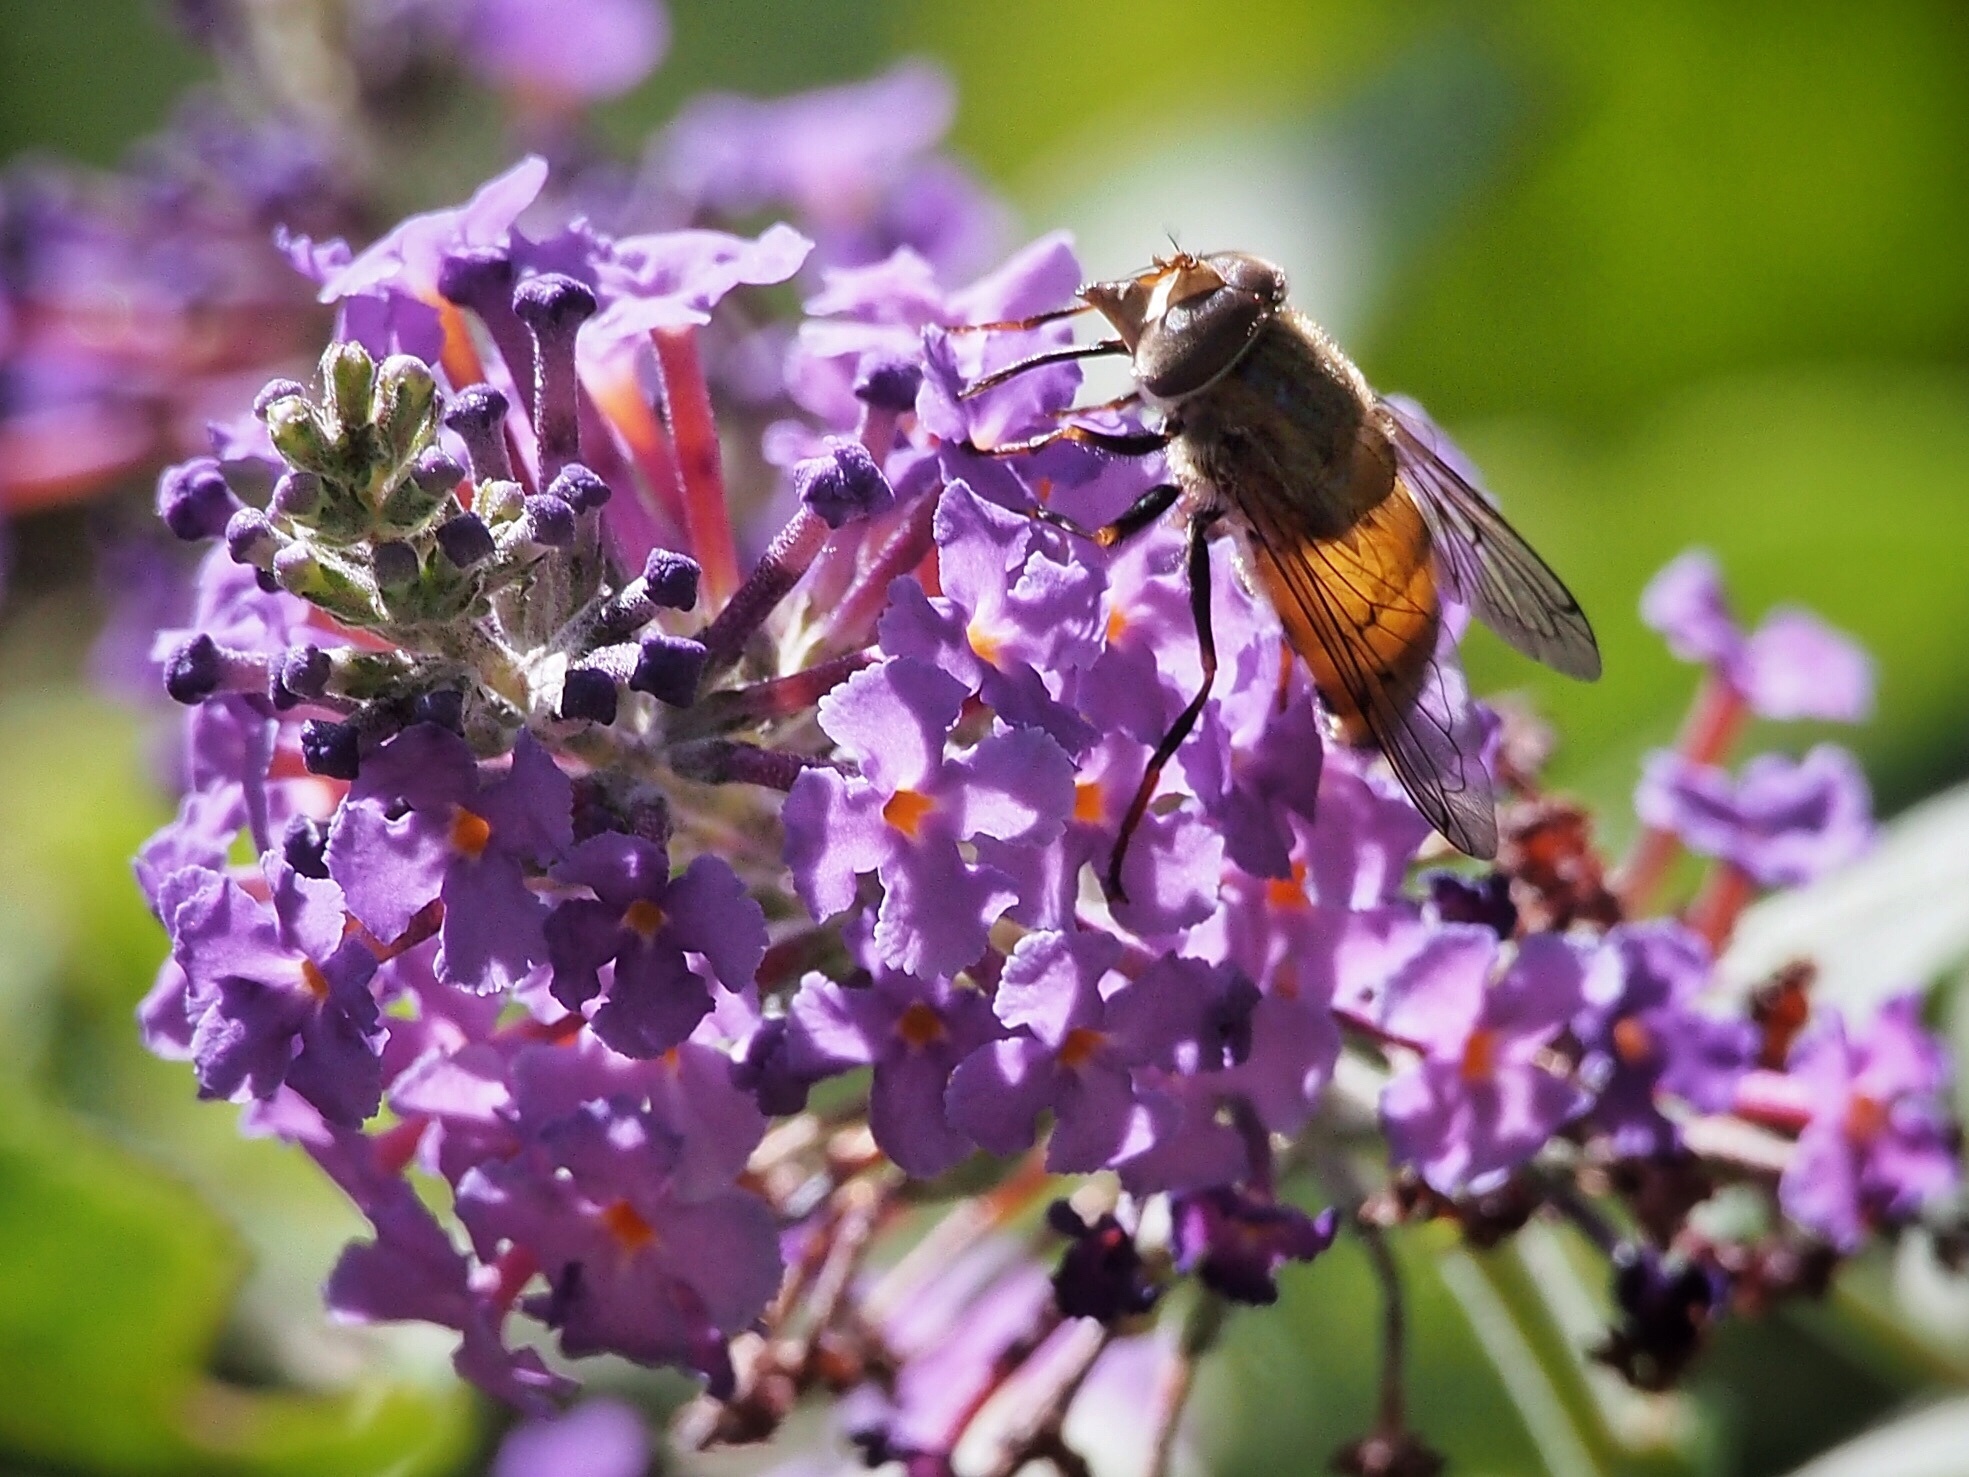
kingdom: Animalia
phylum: Arthropoda
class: Insecta
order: Diptera
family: Syrphidae
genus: Copestylum
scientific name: Copestylum haagii
